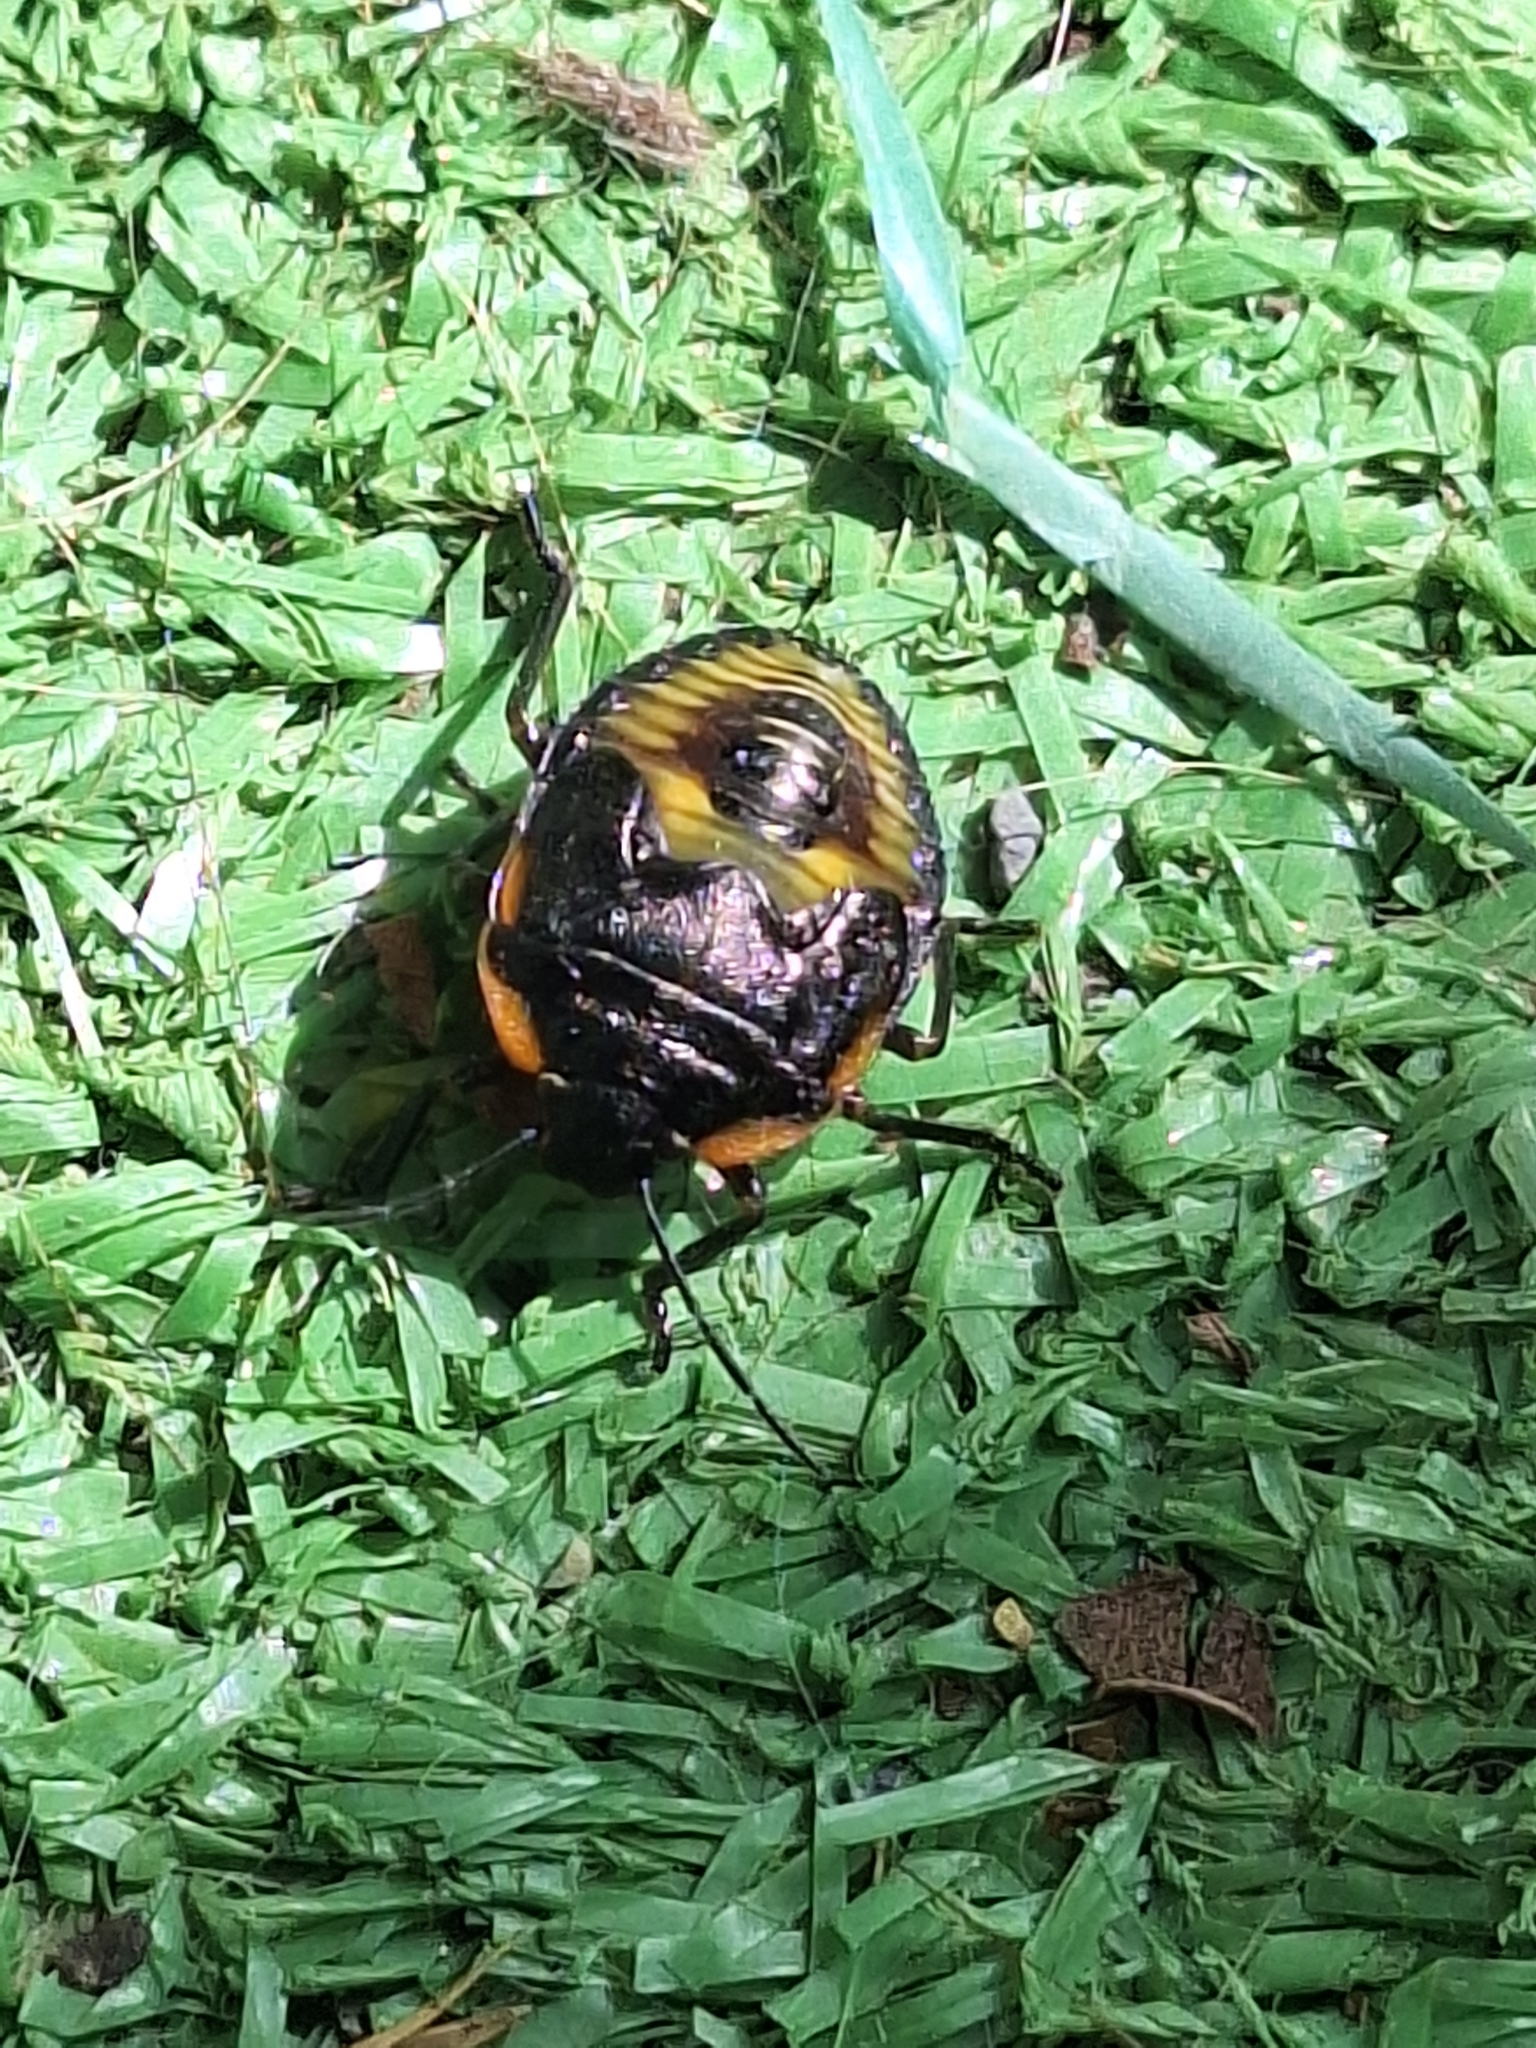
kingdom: Animalia
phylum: Arthropoda
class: Insecta
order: Hemiptera
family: Pentatomidae
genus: Chinavia
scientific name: Chinavia hilaris
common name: Green stink bug
